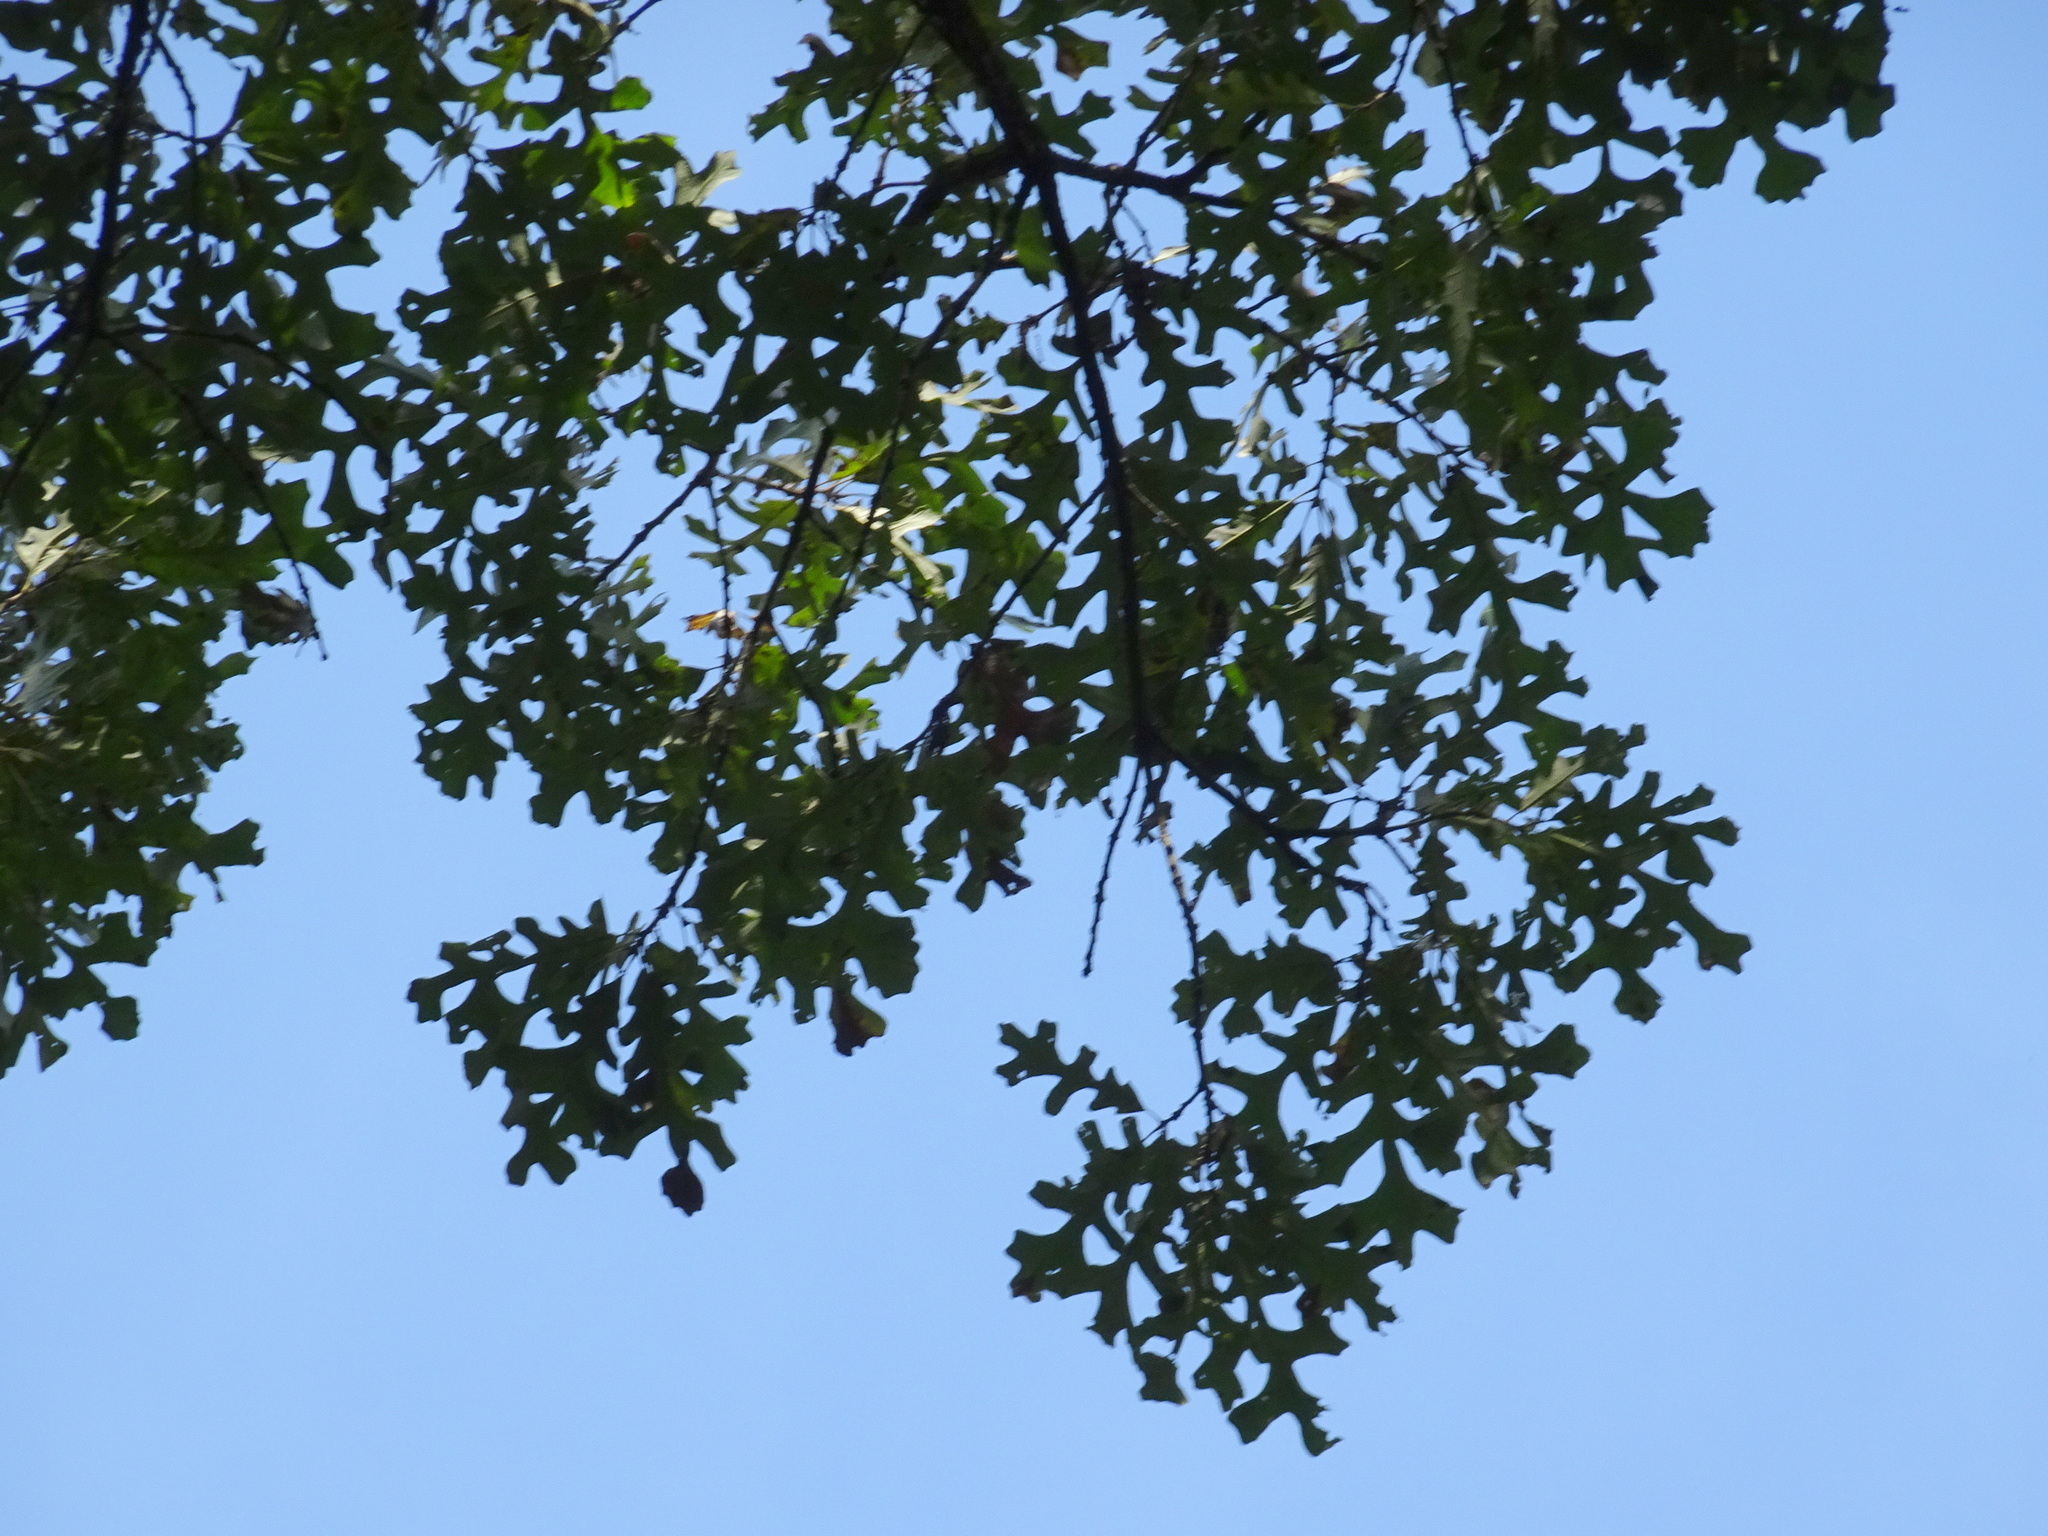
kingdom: Plantae
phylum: Tracheophyta
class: Magnoliopsida
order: Fagales
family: Fagaceae
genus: Quercus
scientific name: Quercus stellata
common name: Post oak
